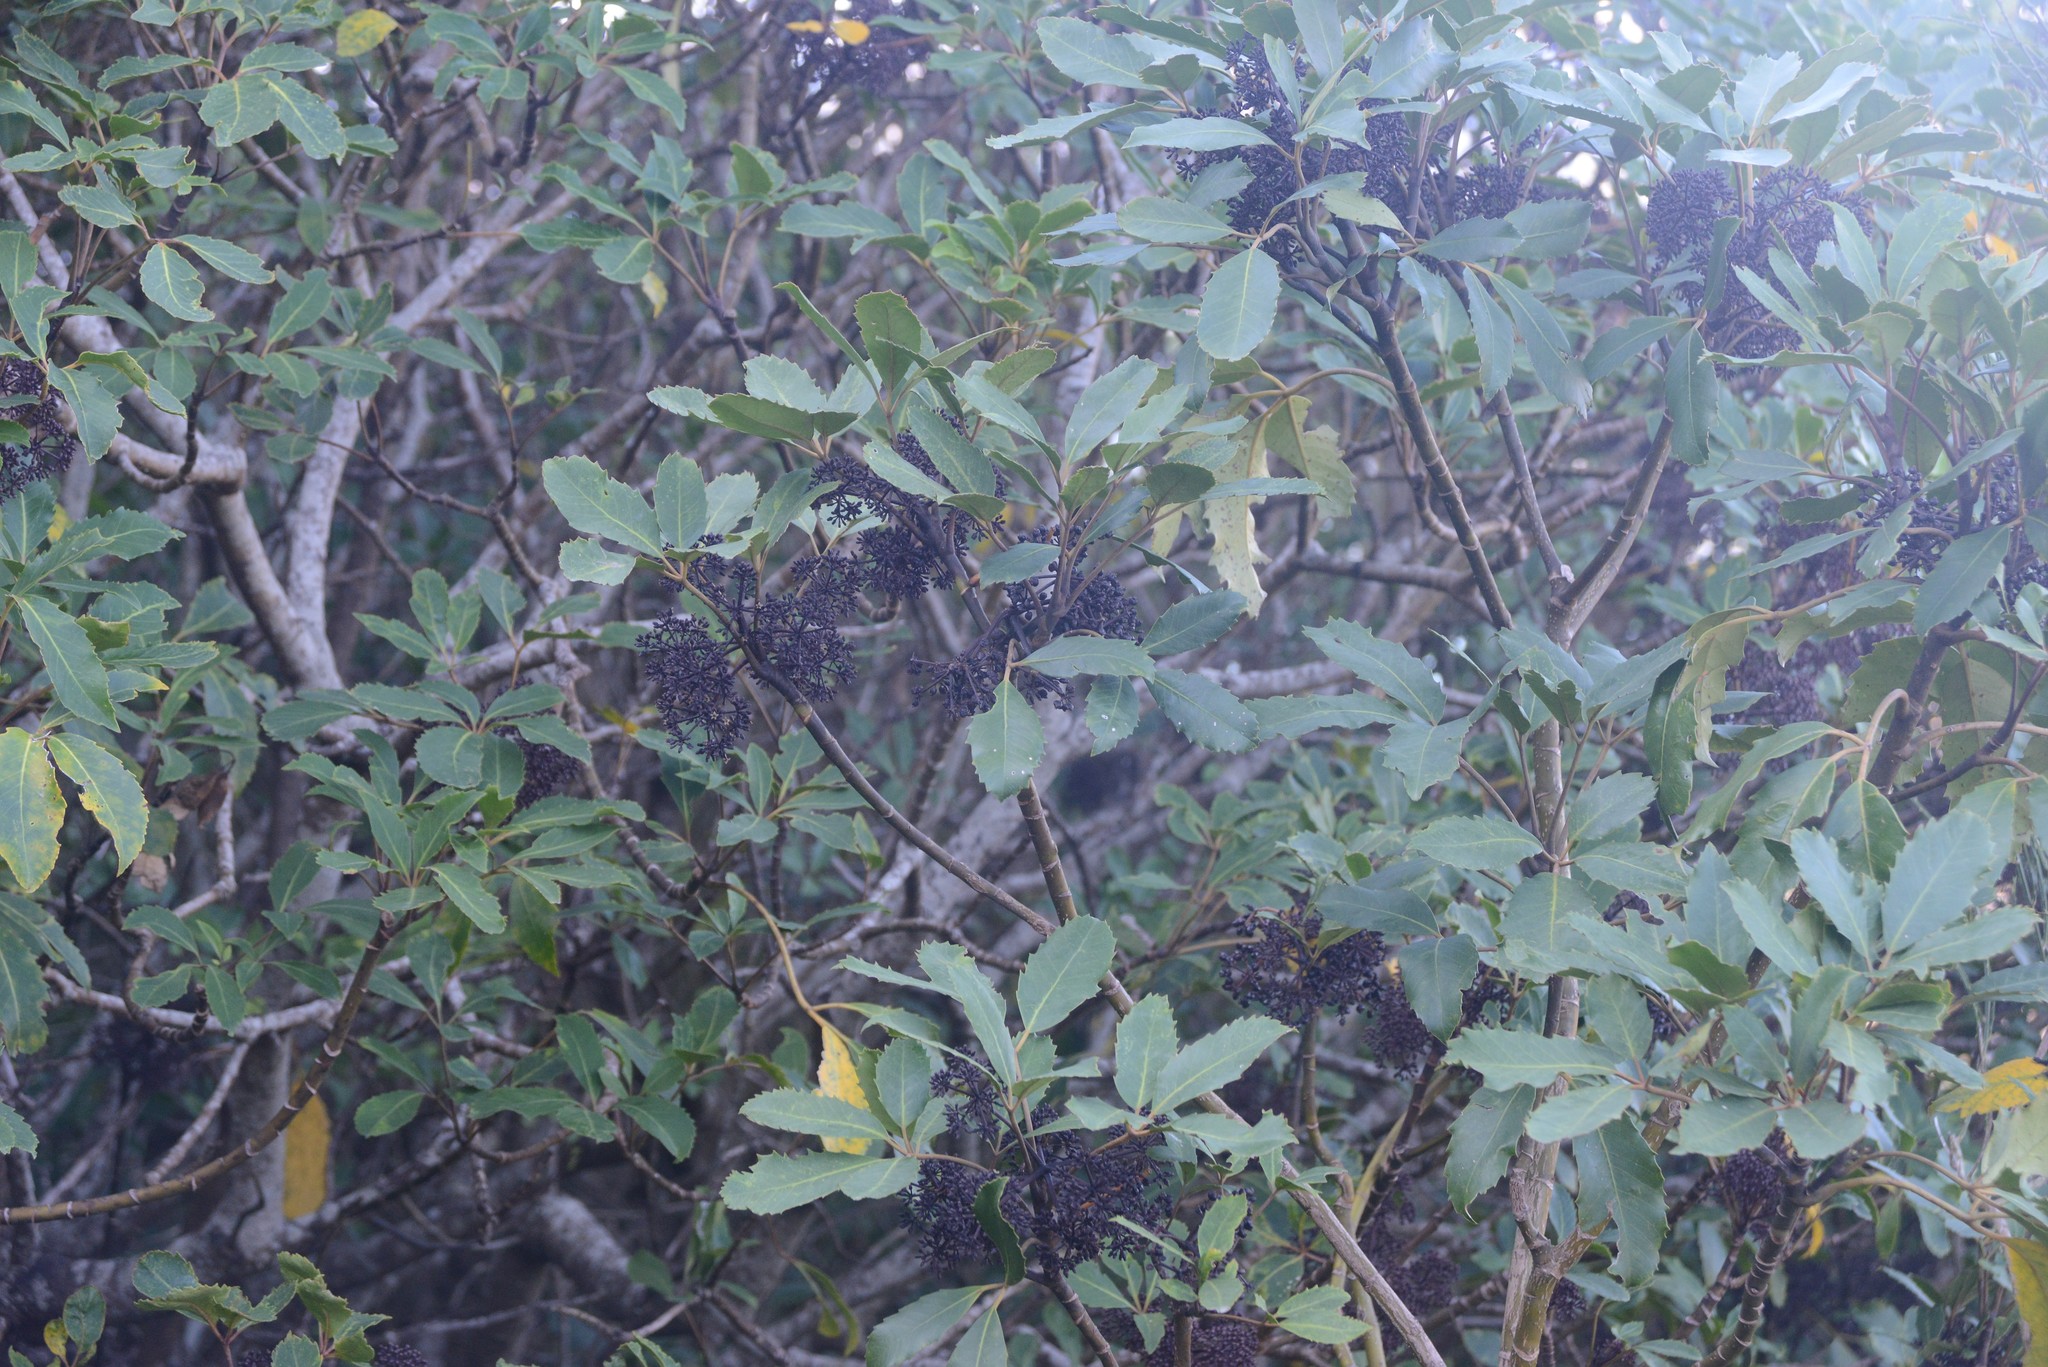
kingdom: Plantae
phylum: Tracheophyta
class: Magnoliopsida
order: Apiales
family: Araliaceae
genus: Neopanax
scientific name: Neopanax arboreus
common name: Five-fingers
